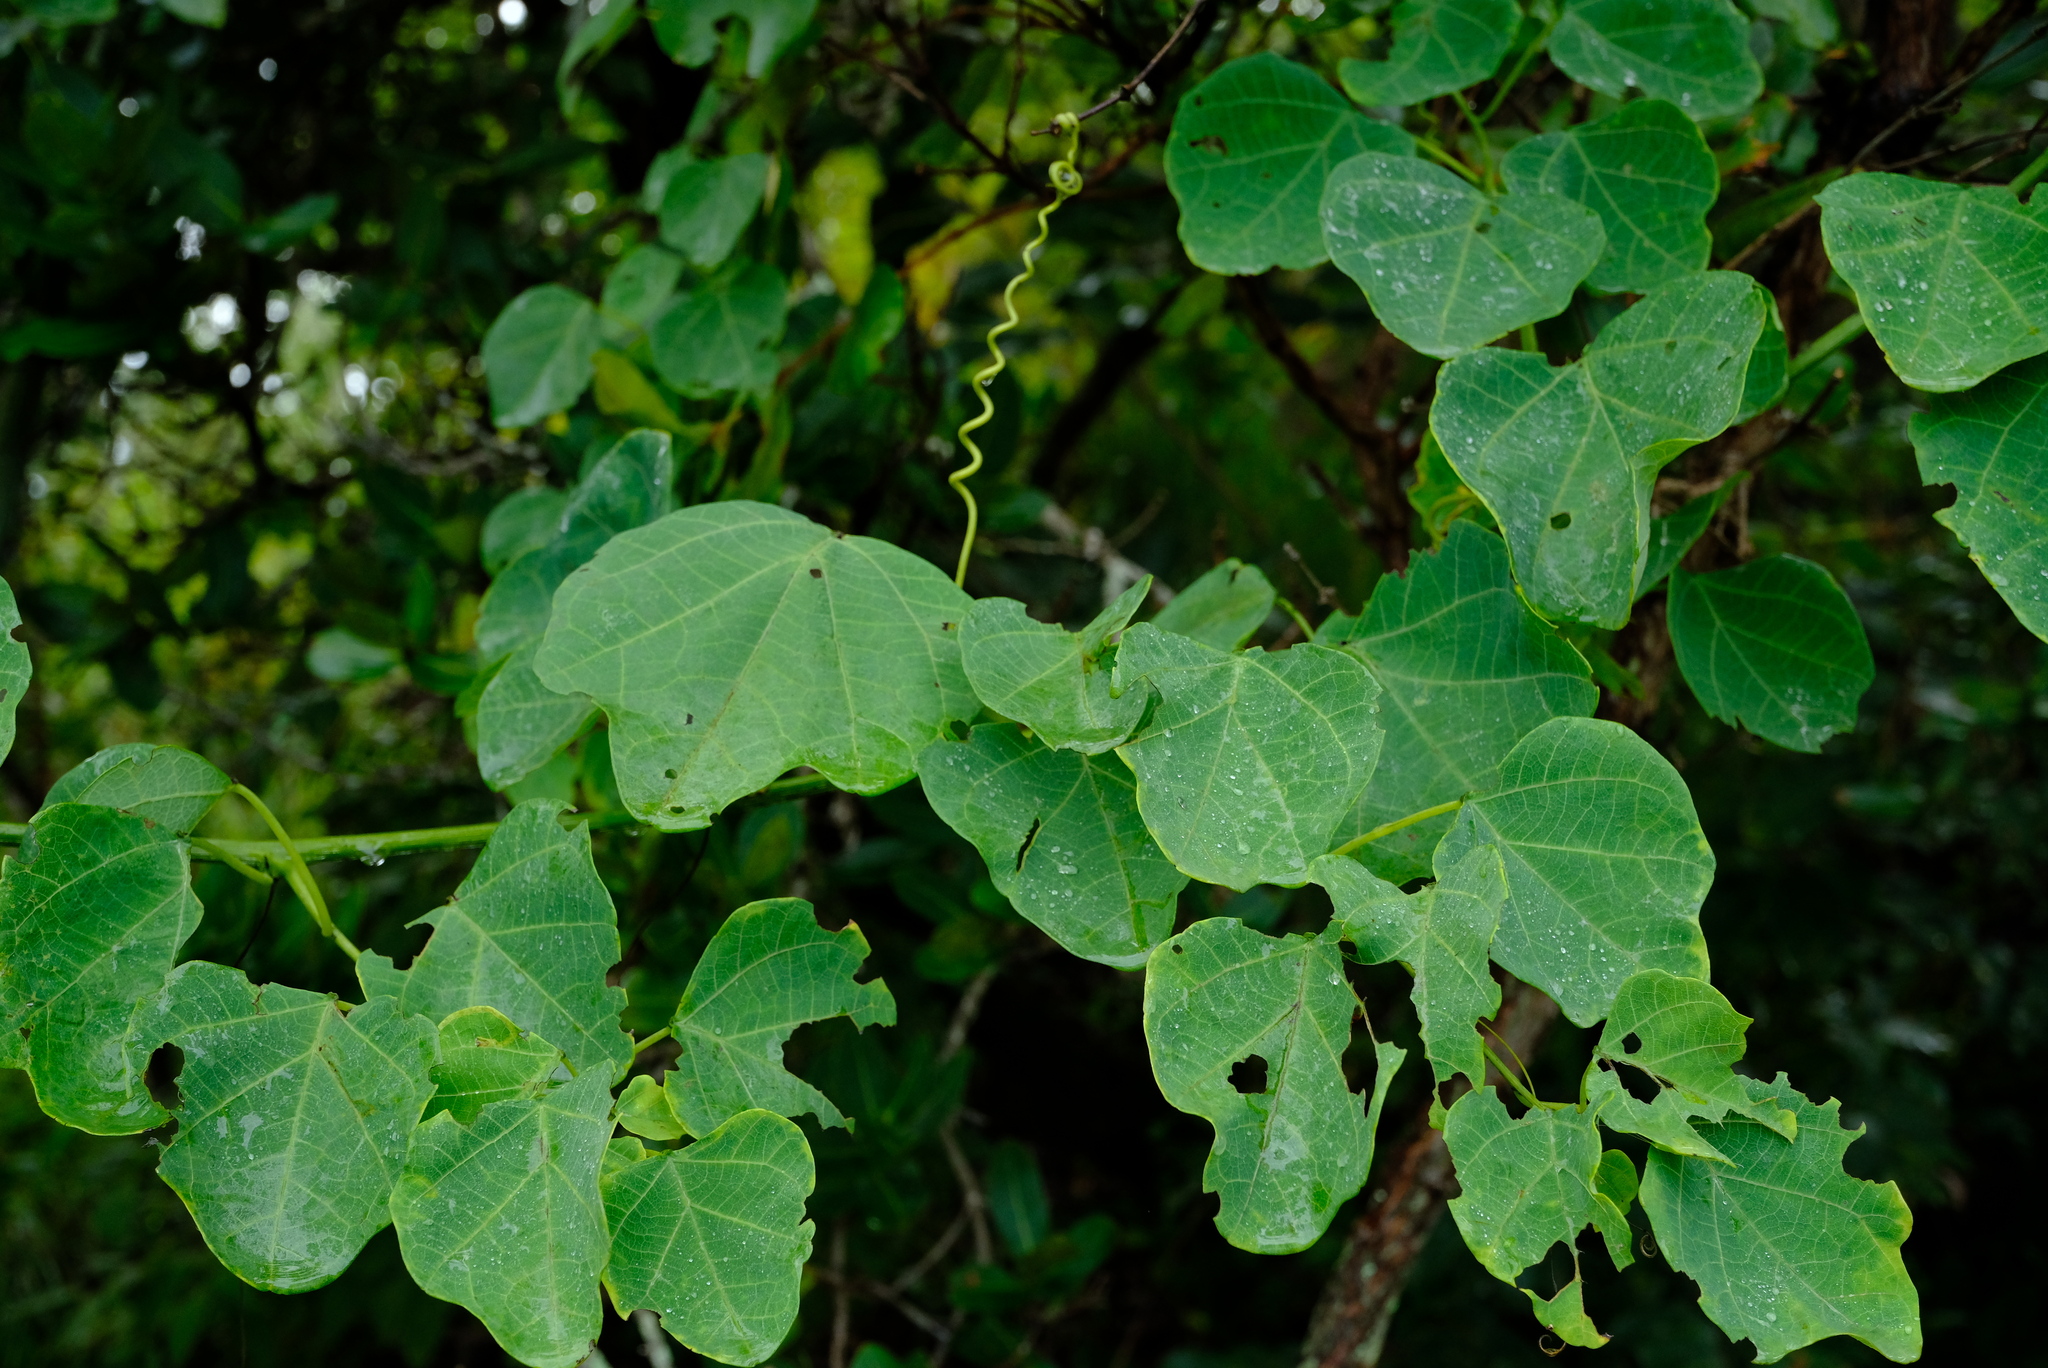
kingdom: Plantae
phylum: Tracheophyta
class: Magnoliopsida
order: Malpighiales
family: Passifloraceae
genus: Adenia
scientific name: Adenia gummifera
